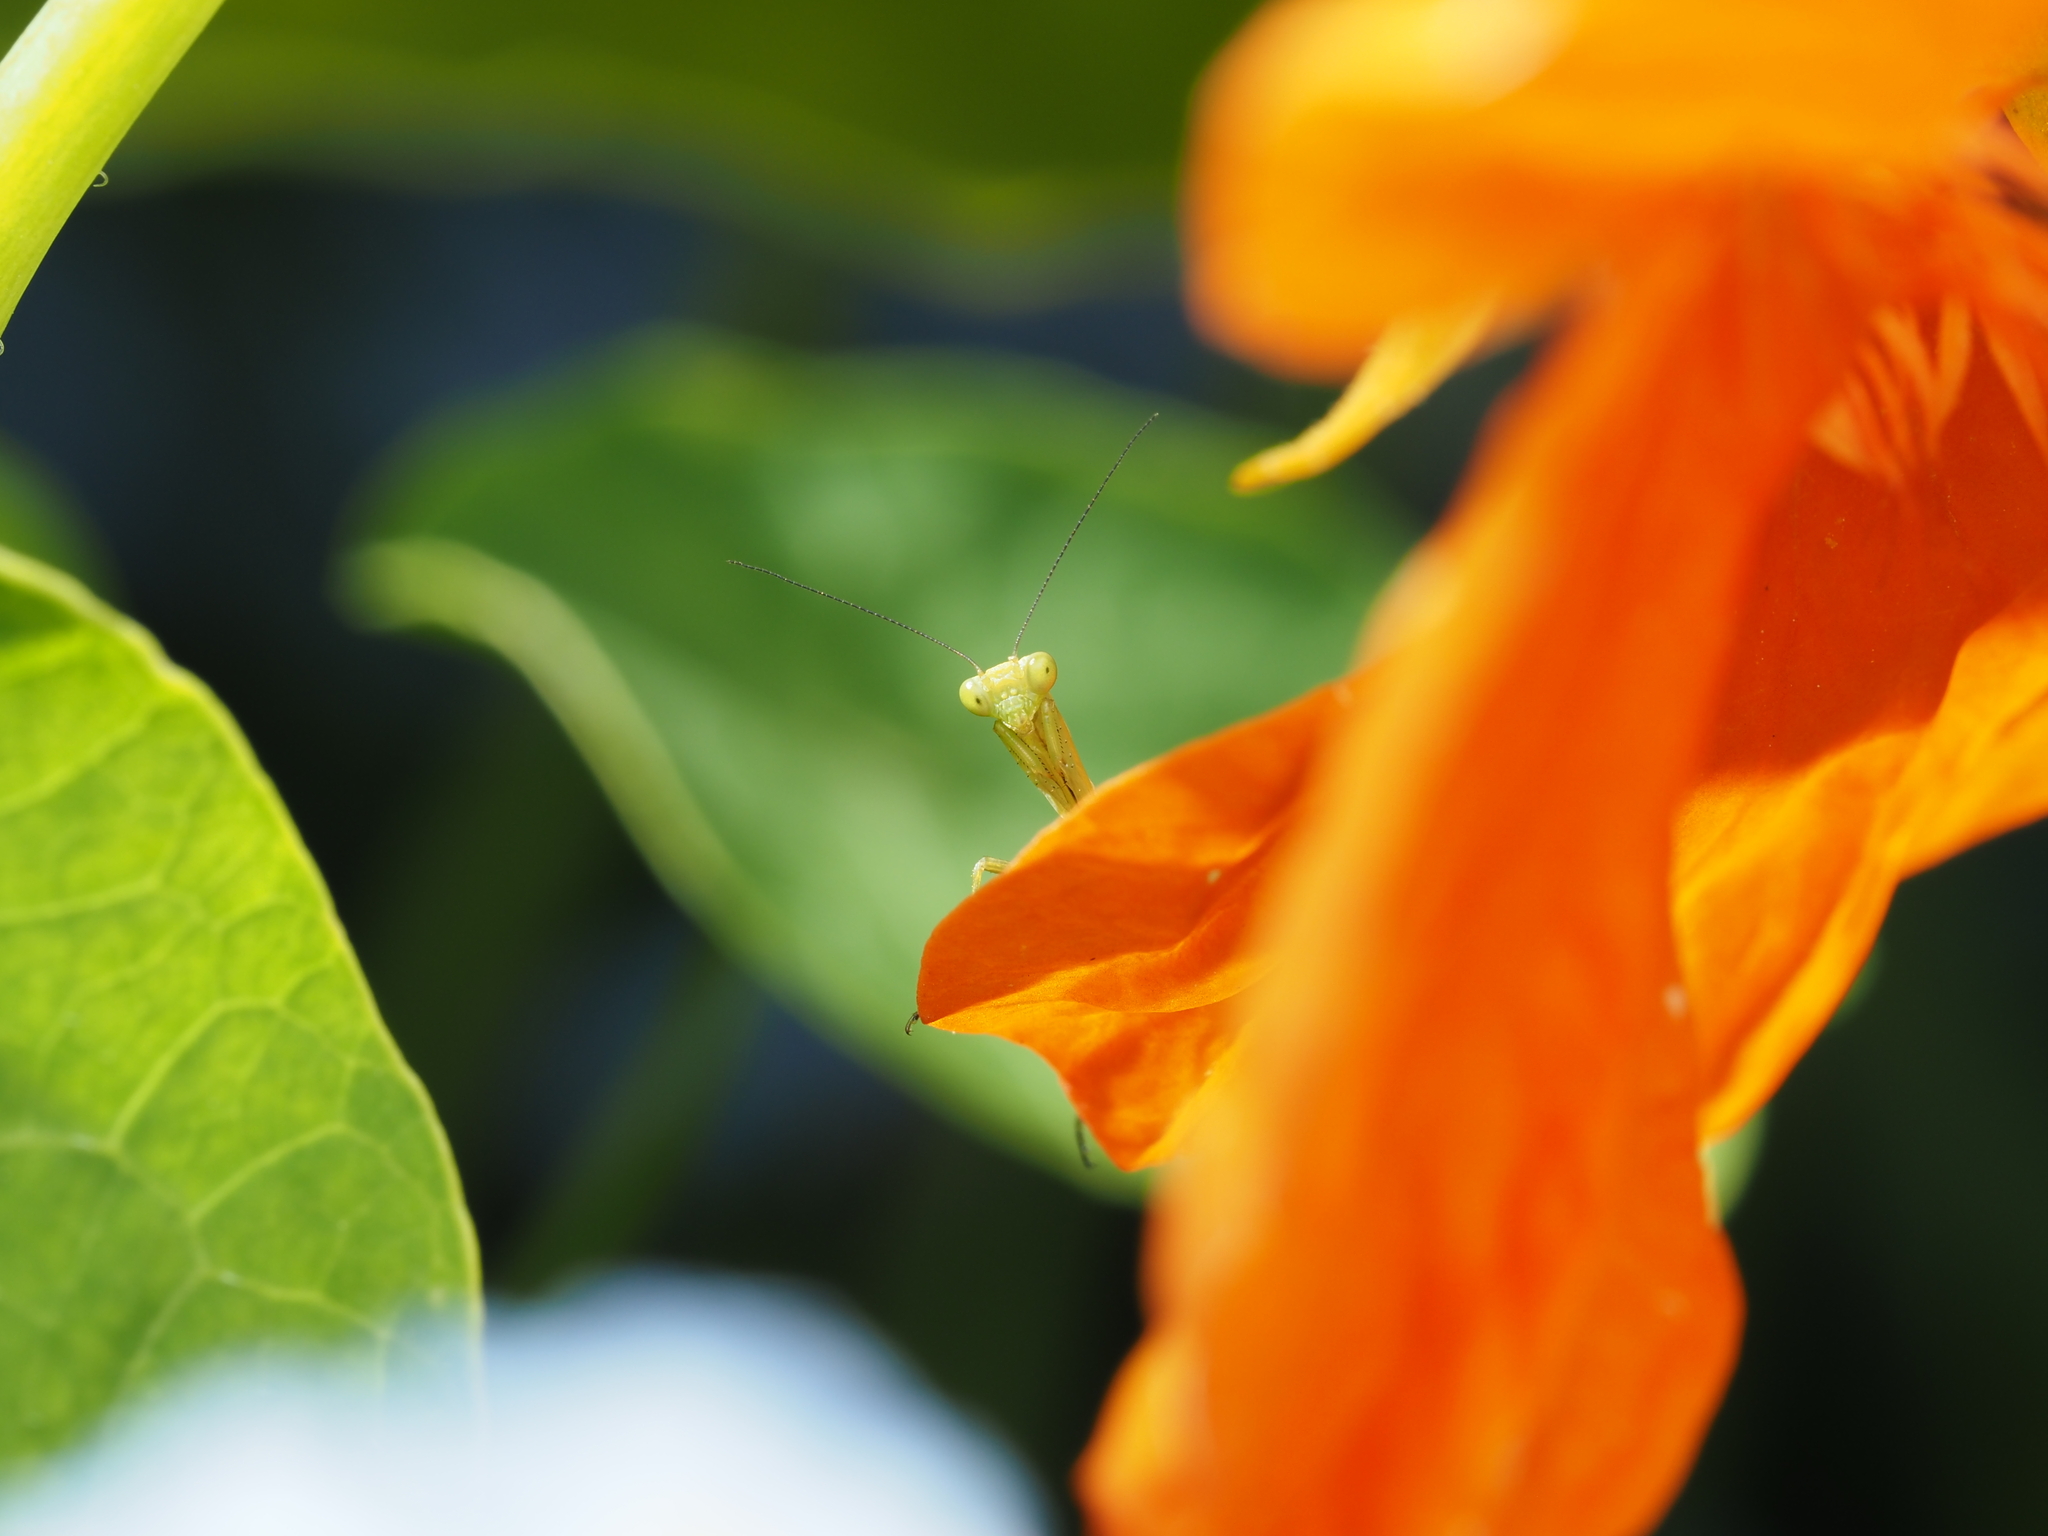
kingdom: Animalia
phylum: Arthropoda
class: Insecta
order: Mantodea
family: Mantidae
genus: Orthodera
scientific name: Orthodera novaezealandiae
